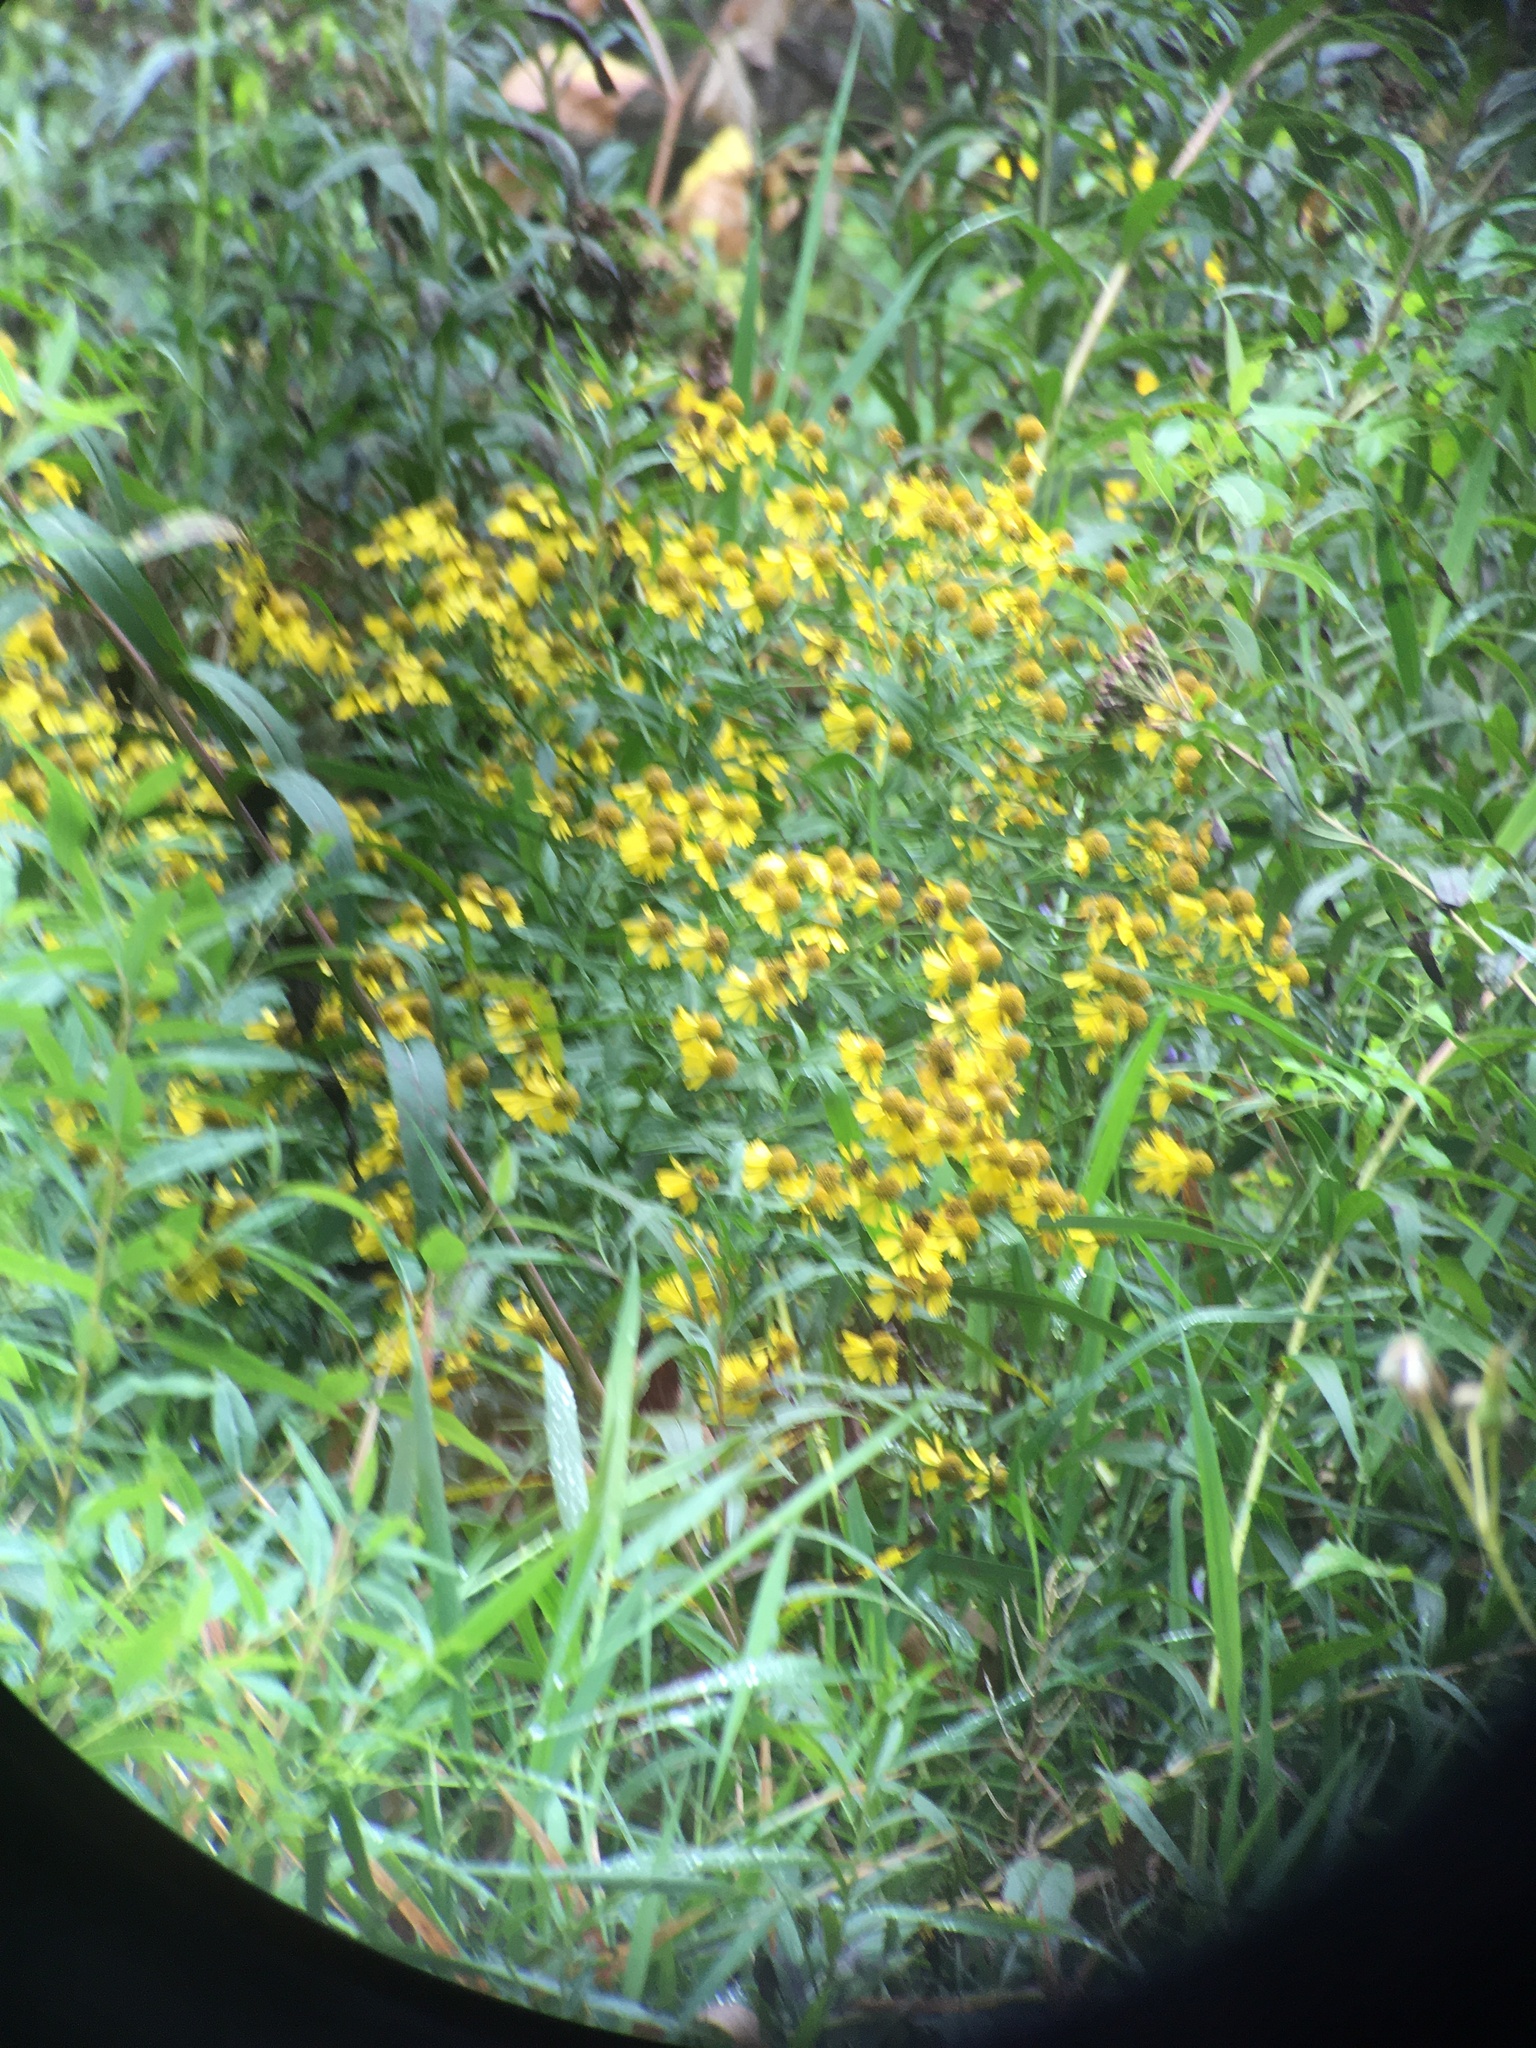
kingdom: Plantae
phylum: Tracheophyta
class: Magnoliopsida
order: Asterales
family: Asteraceae
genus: Helenium
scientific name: Helenium autumnale
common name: Sneezeweed
